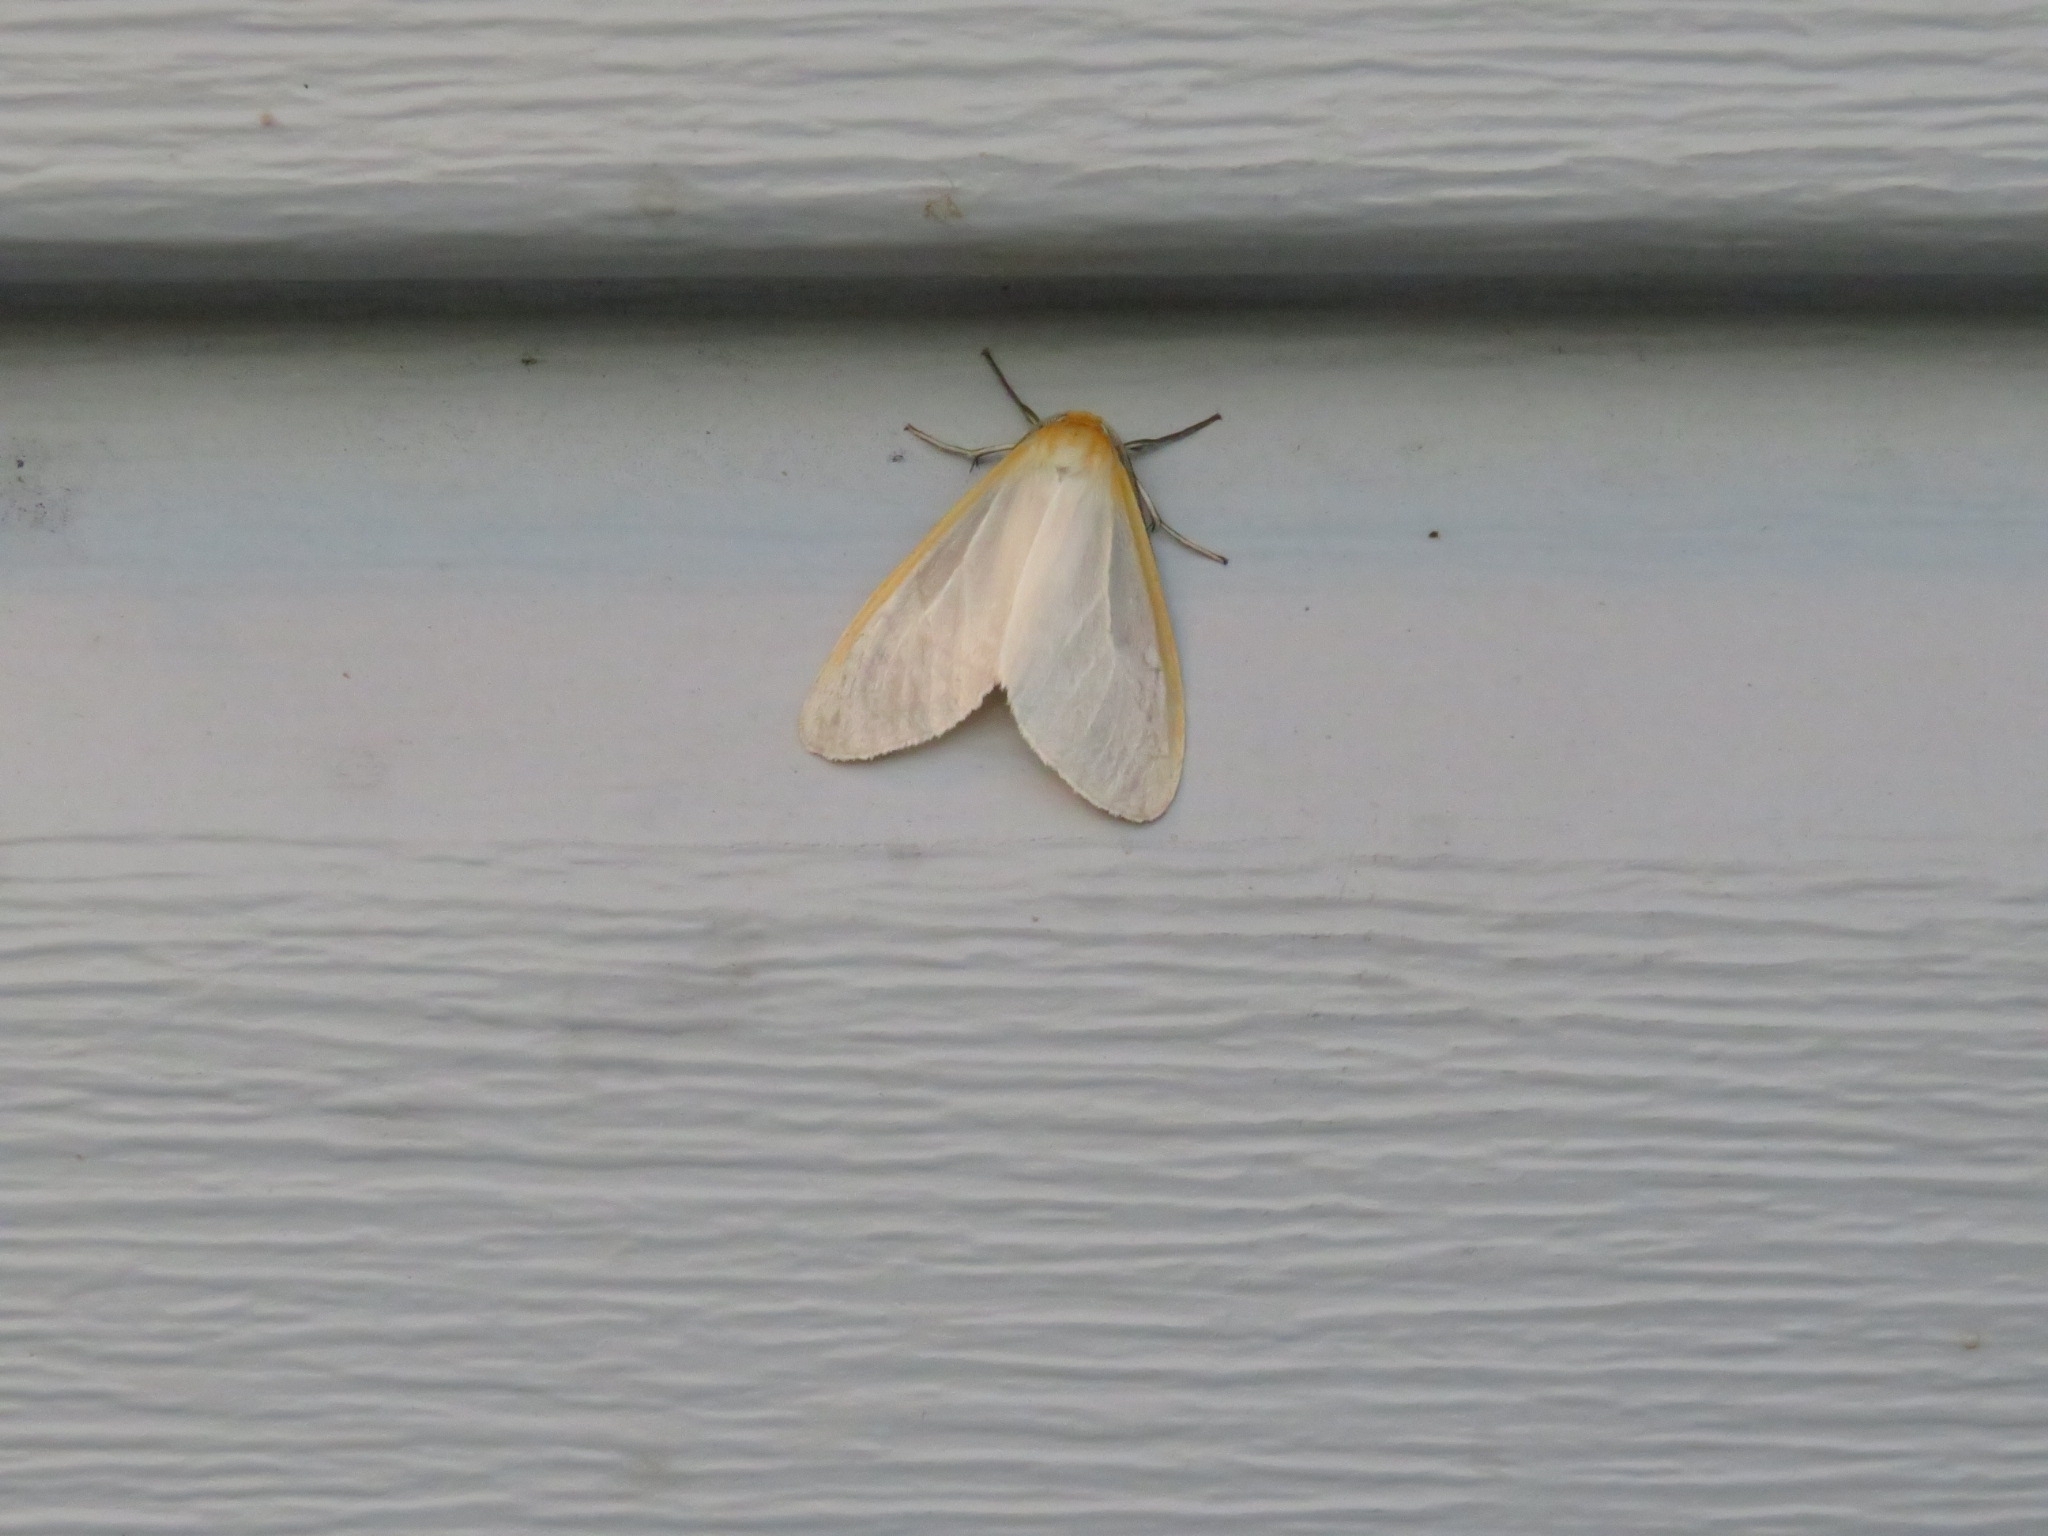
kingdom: Animalia
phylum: Arthropoda
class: Insecta
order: Lepidoptera
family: Erebidae
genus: Cycnia
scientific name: Cycnia tenera
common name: Delicate cycnia moth
